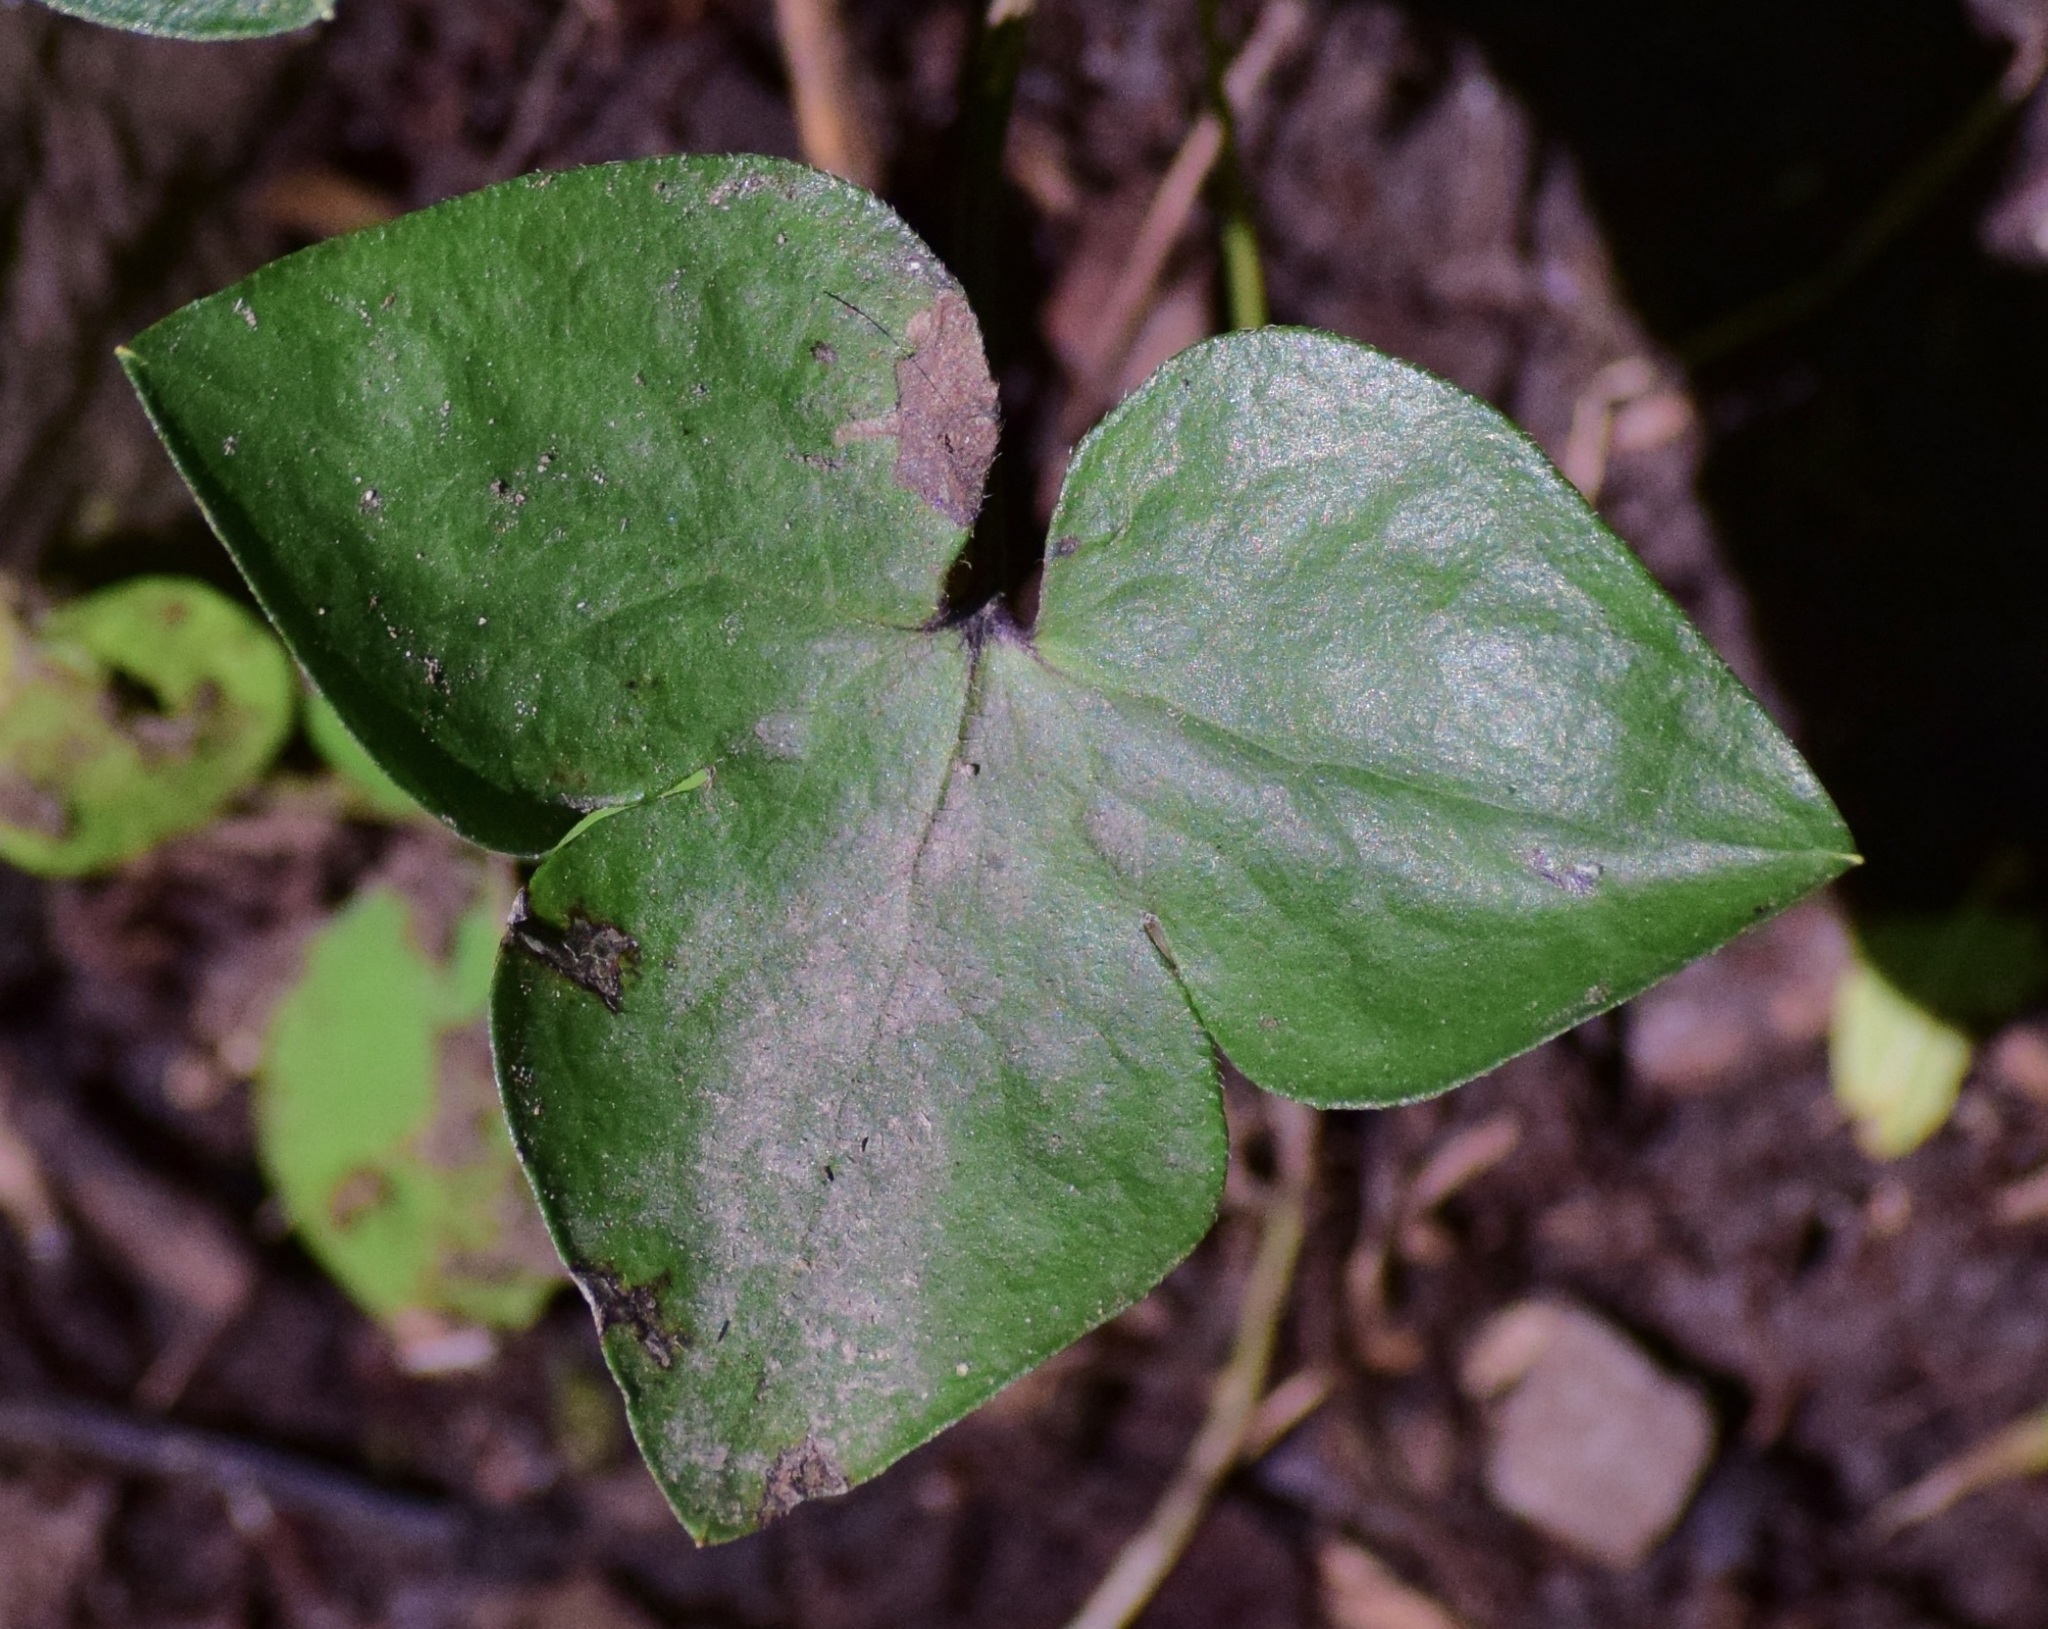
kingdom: Plantae
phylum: Tracheophyta
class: Magnoliopsida
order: Ranunculales
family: Ranunculaceae
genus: Hepatica
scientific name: Hepatica acutiloba
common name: Sharp-lobed hepatica
